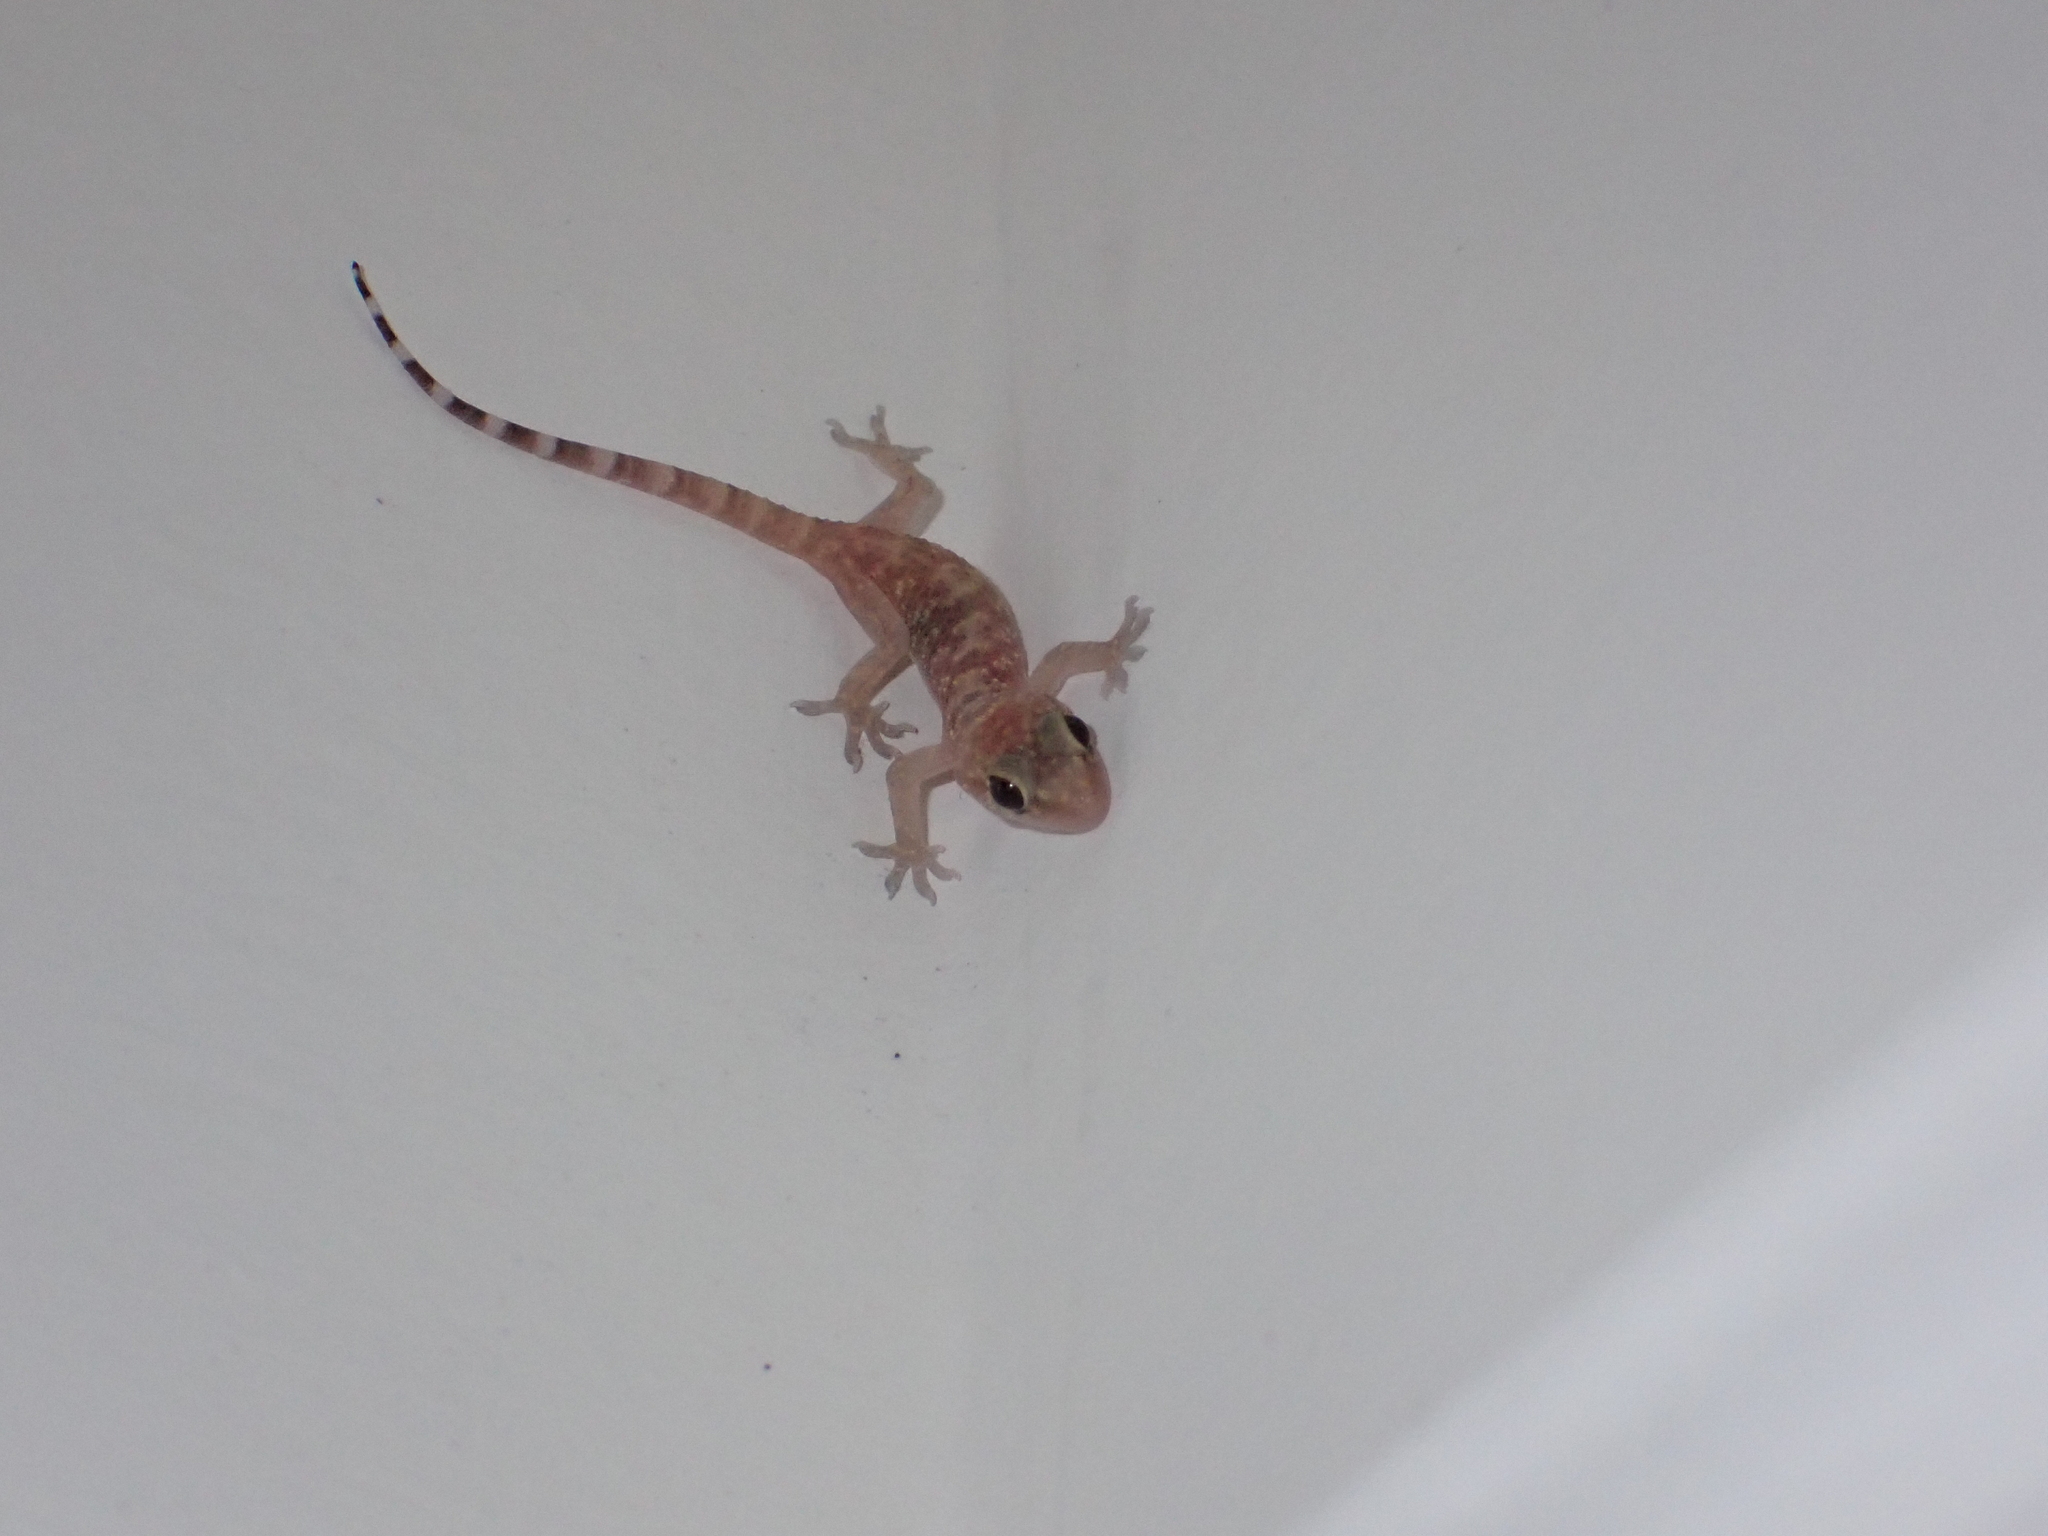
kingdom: Animalia
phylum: Chordata
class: Squamata
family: Gekkonidae
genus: Hemidactylus
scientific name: Hemidactylus turcicus
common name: Turkish gecko
